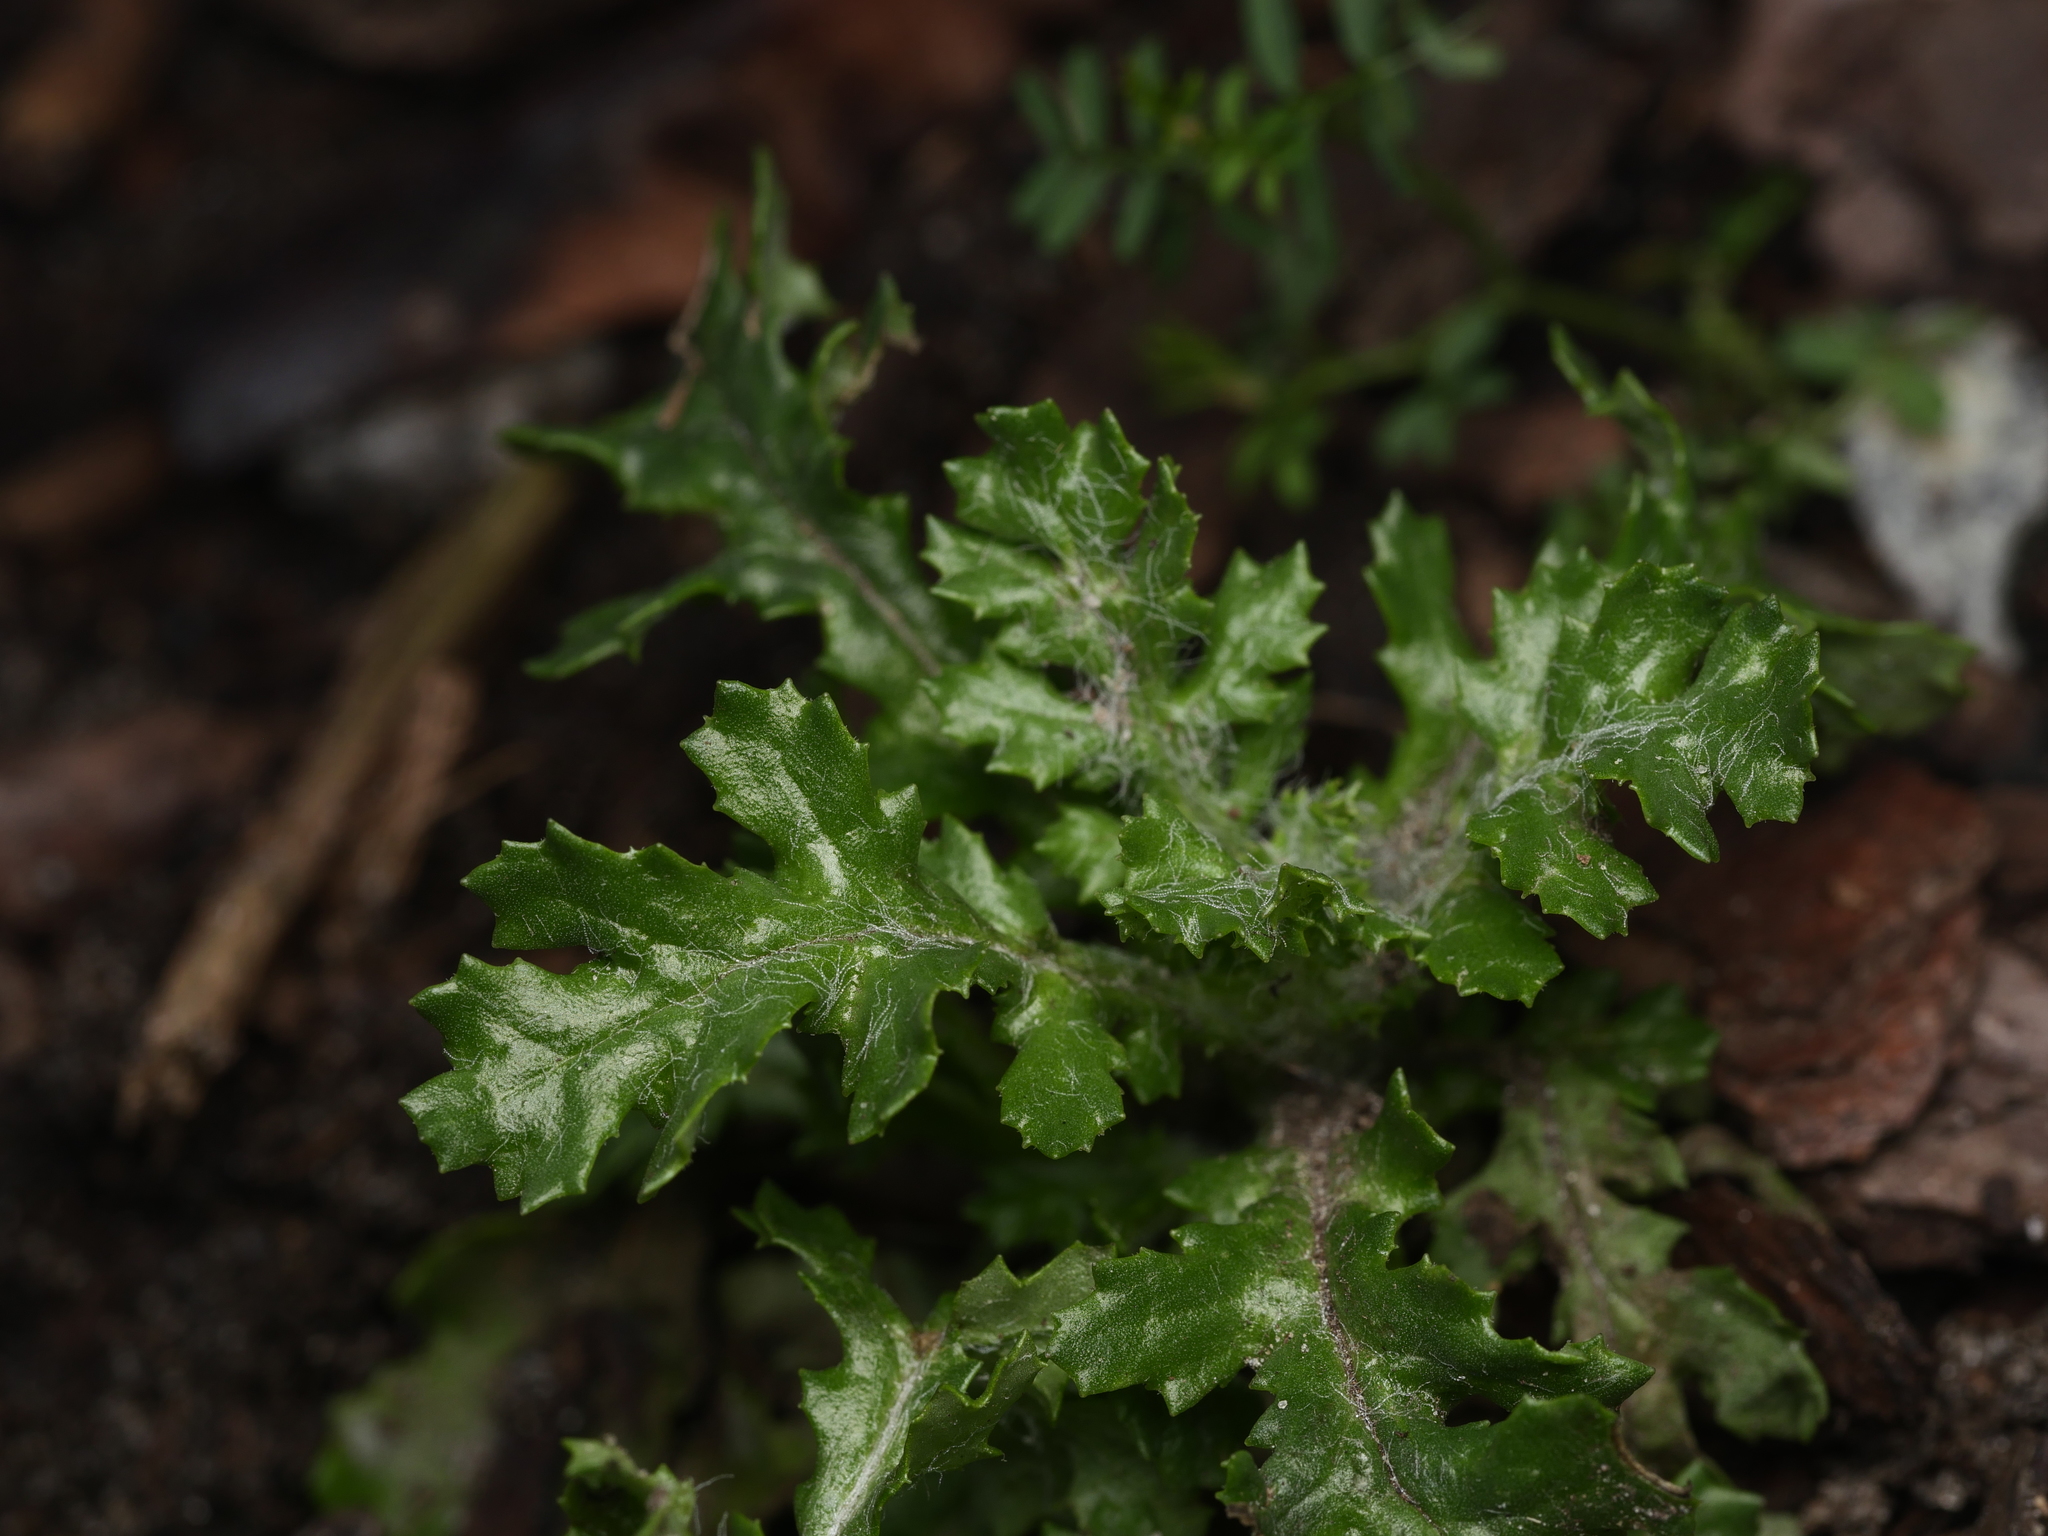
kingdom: Plantae
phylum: Tracheophyta
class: Magnoliopsida
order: Asterales
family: Asteraceae
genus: Senecio
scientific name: Senecio vulgaris
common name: Old-man-in-the-spring
